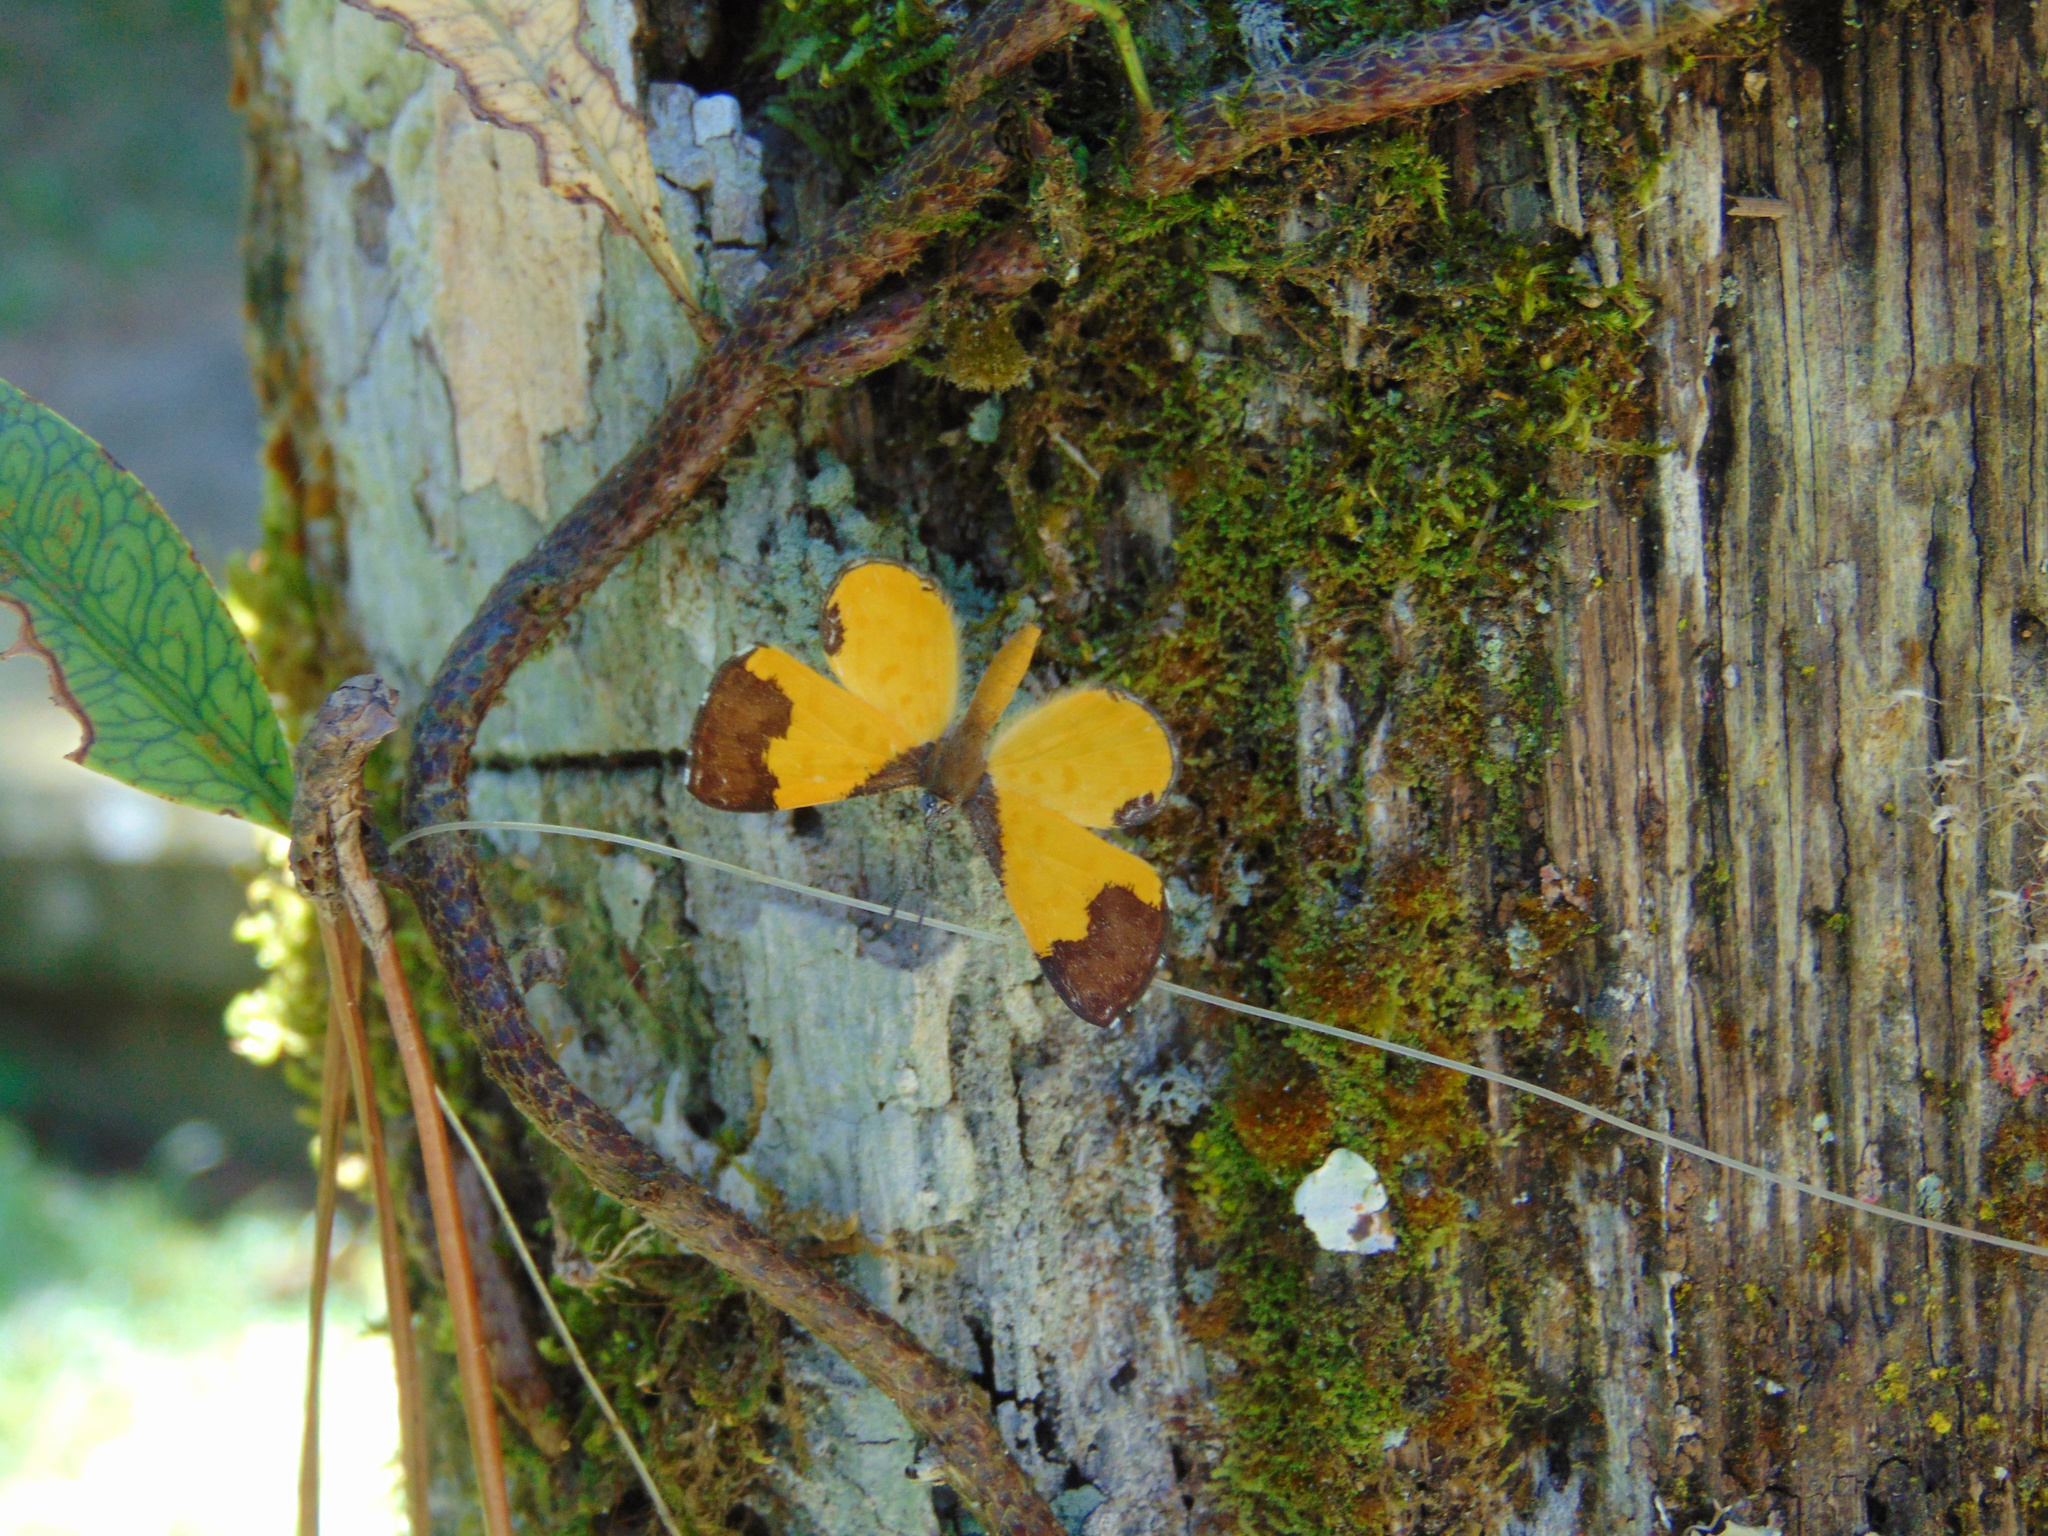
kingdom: Animalia
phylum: Arthropoda
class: Insecta
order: Lepidoptera
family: Riodinidae
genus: Echenais
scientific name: Echenais Adelotypa bolena
